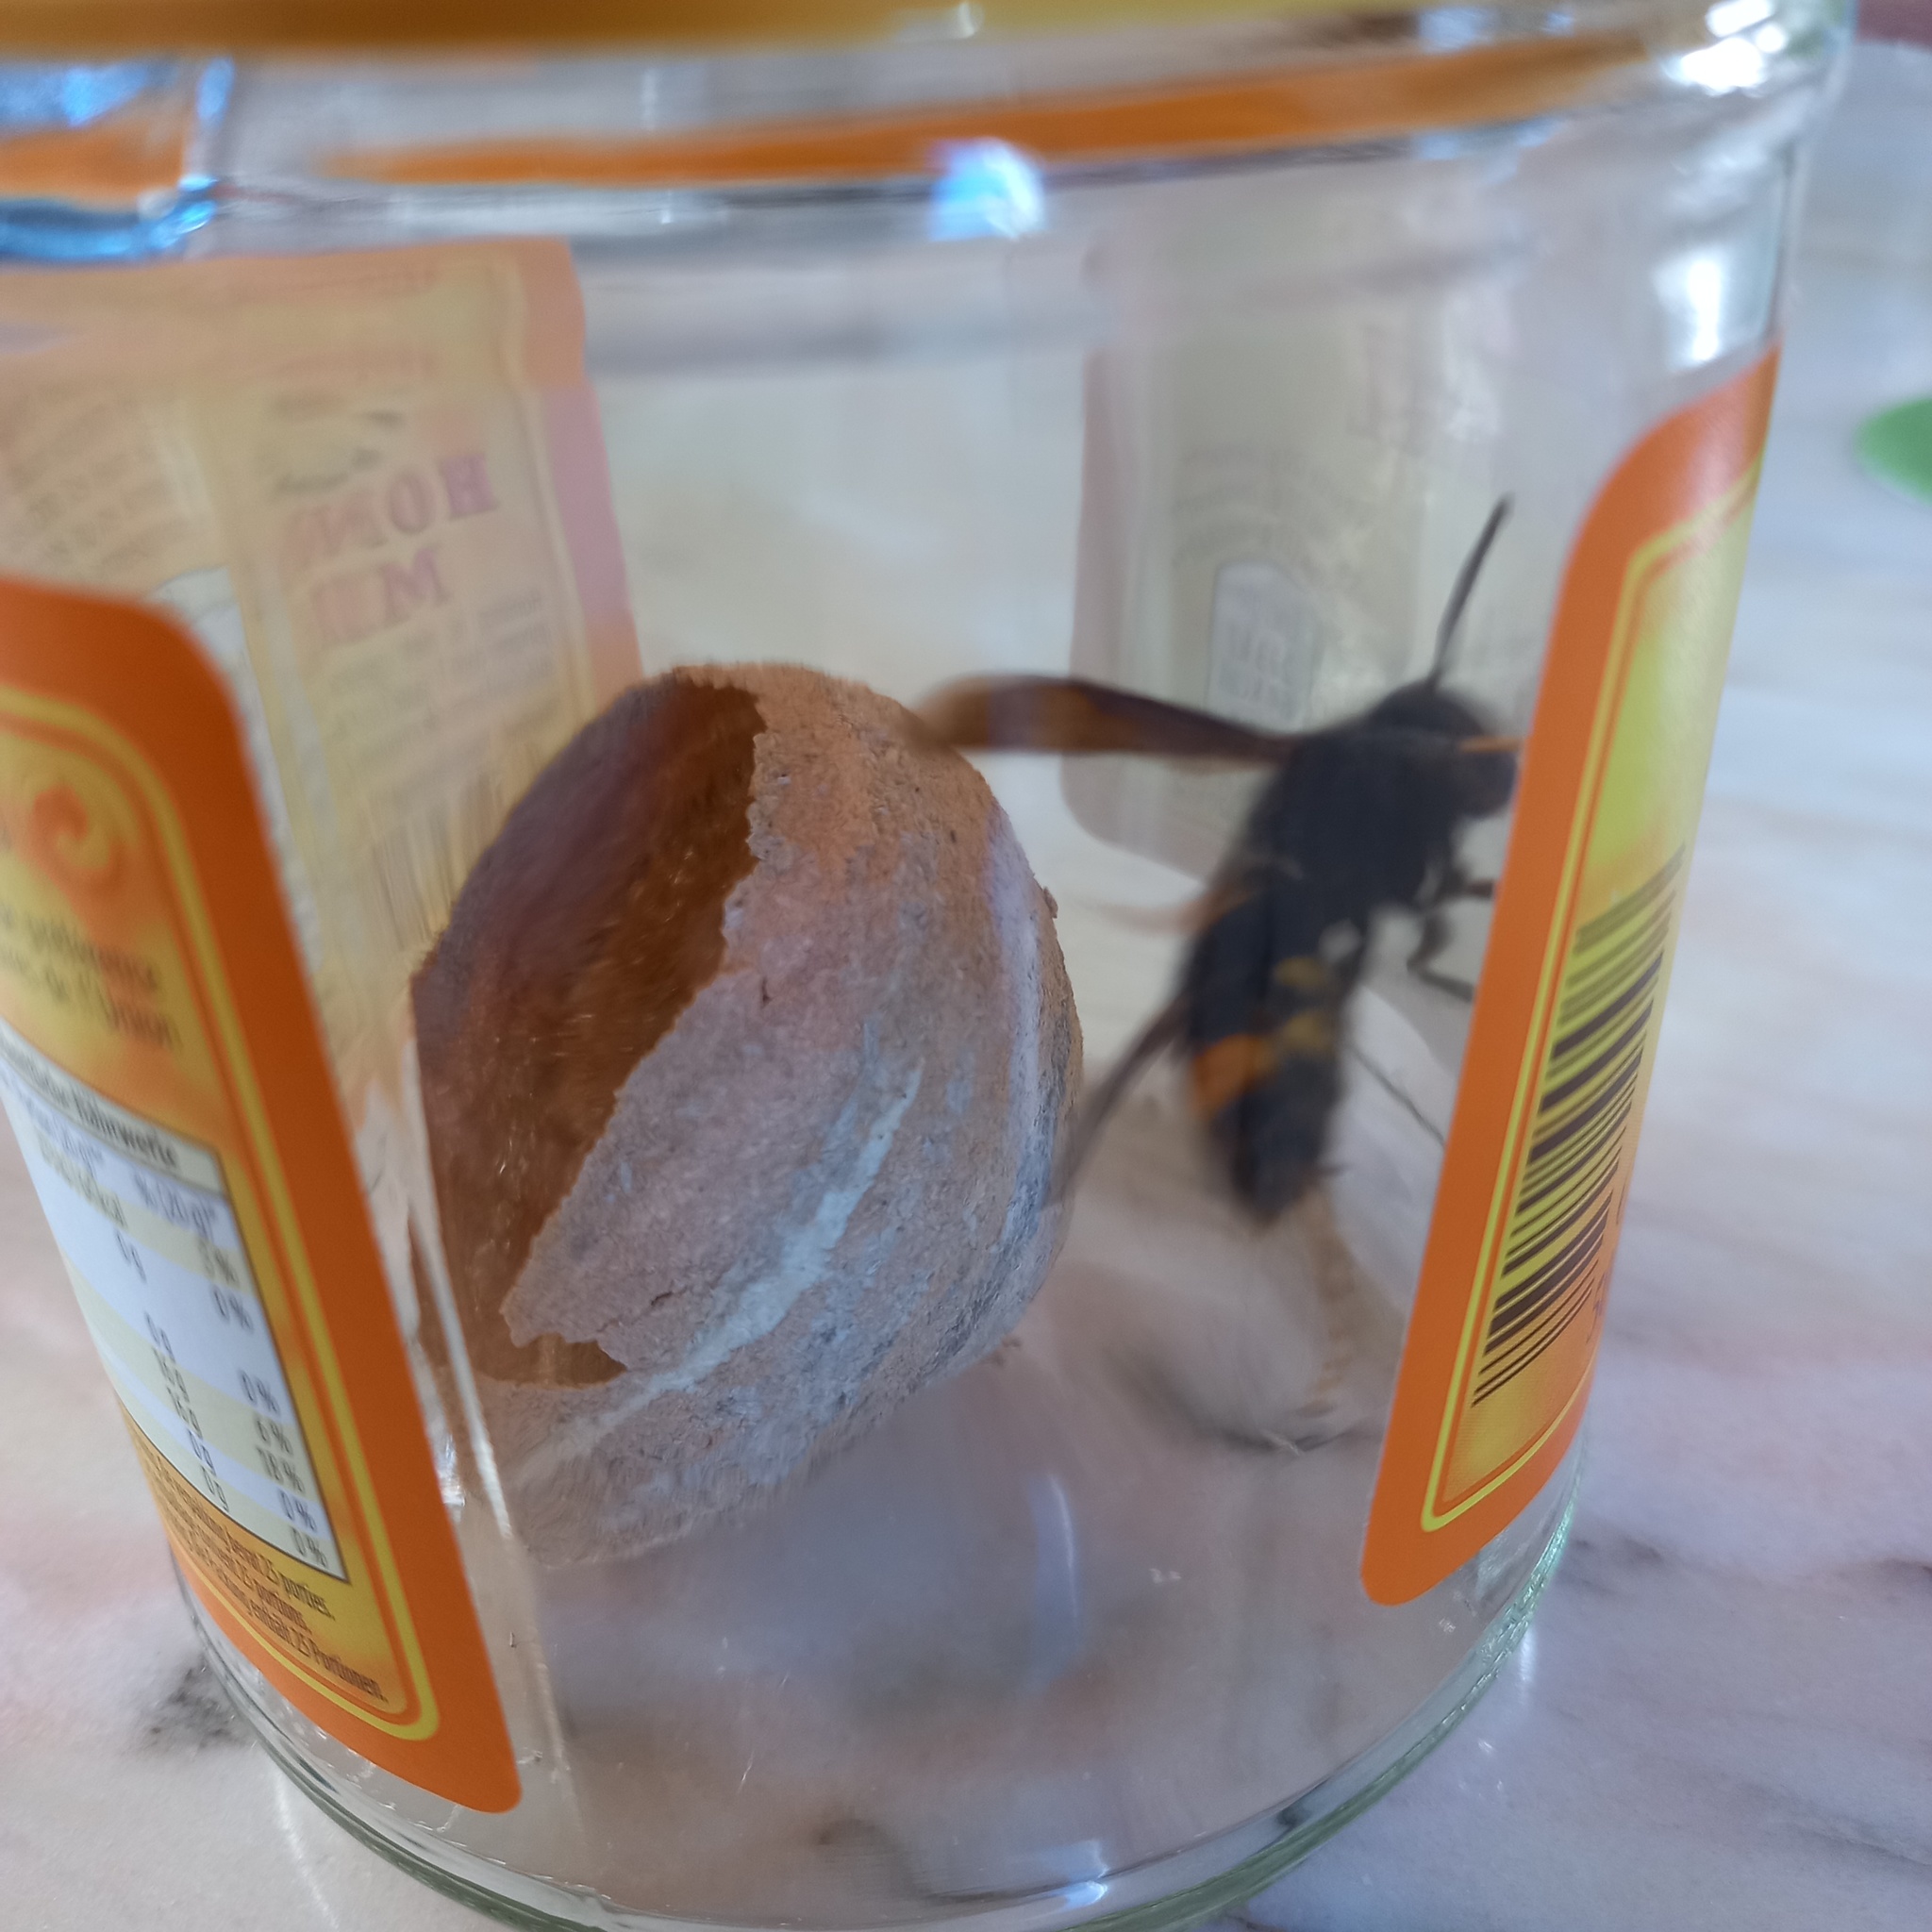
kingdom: Animalia
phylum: Arthropoda
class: Insecta
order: Hymenoptera
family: Vespidae
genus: Vespa
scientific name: Vespa velutina
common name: Asian hornet
